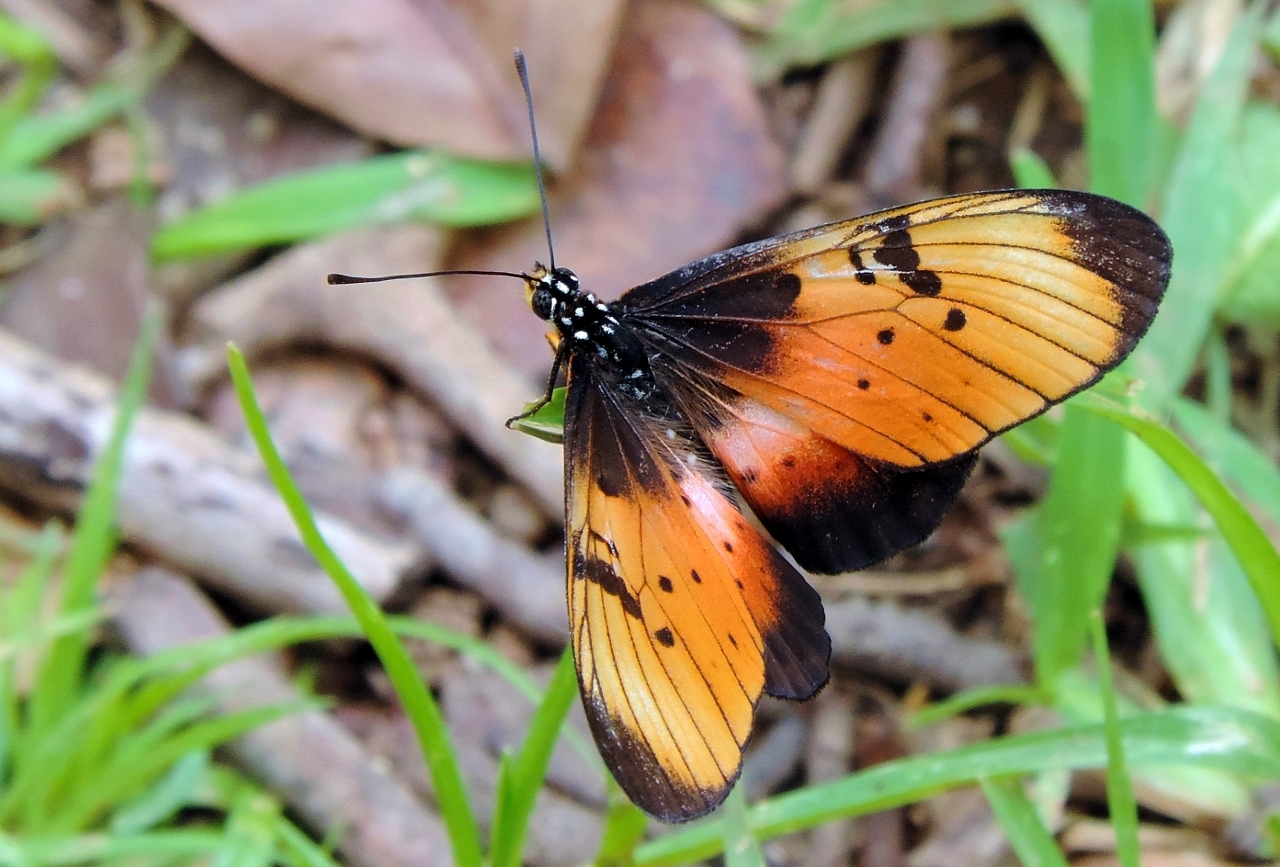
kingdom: Animalia
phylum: Arthropoda
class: Insecta
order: Lepidoptera
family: Nymphalidae
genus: Stephenia
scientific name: Stephenia
